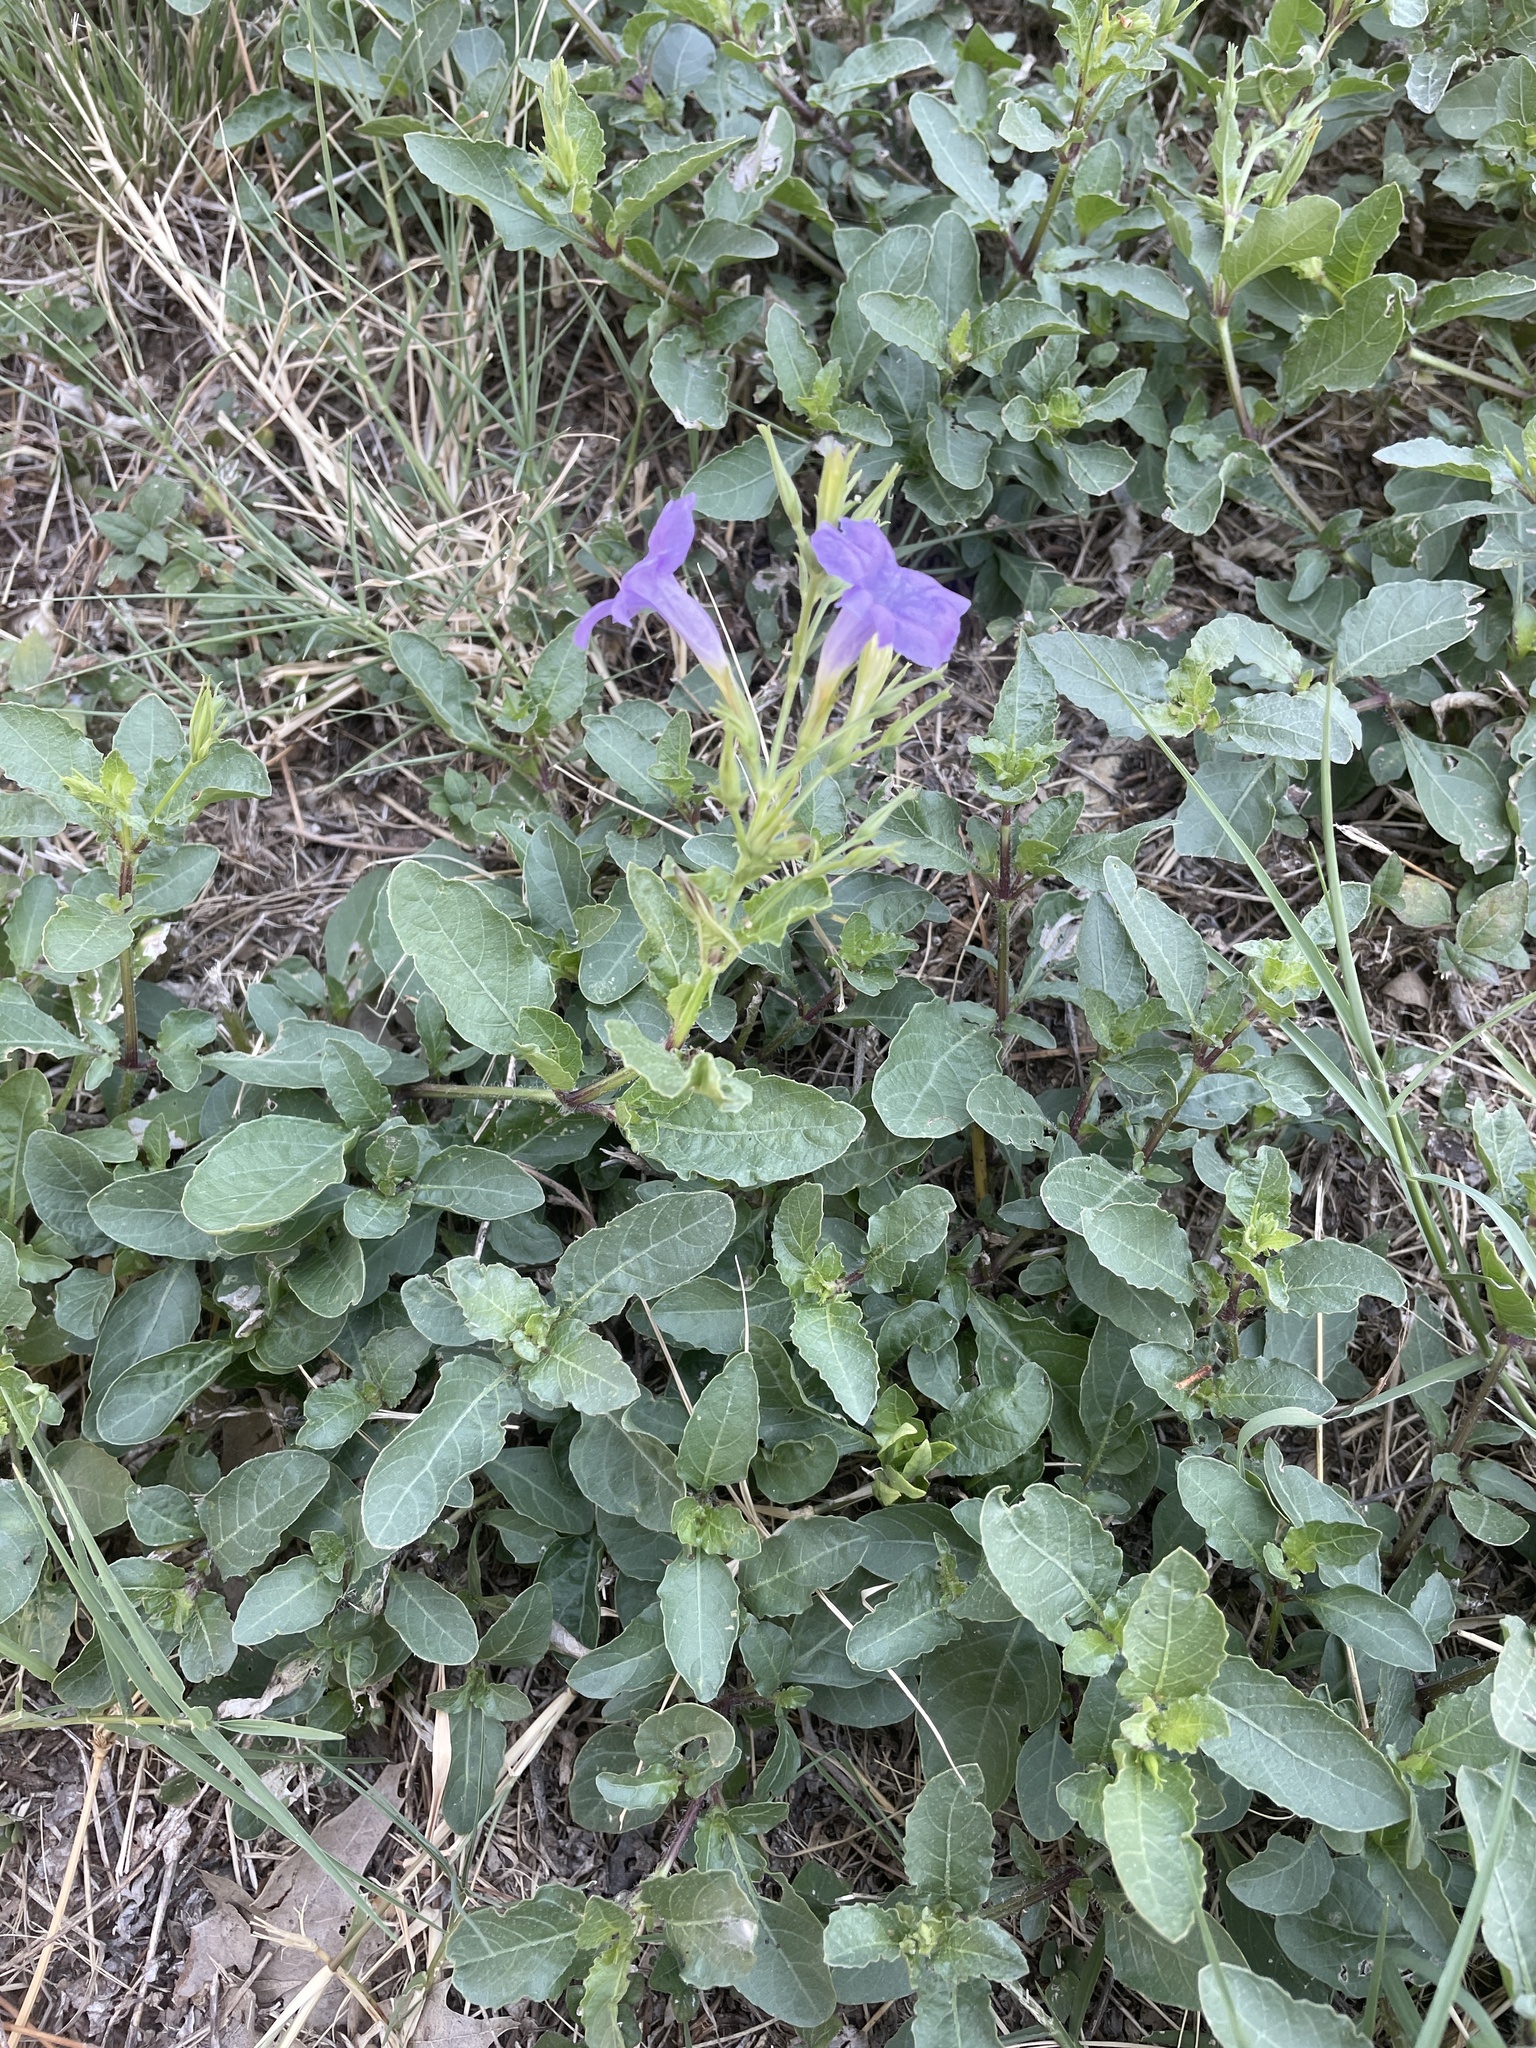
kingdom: Plantae
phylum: Tracheophyta
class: Magnoliopsida
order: Lamiales
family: Acanthaceae
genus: Ruellia
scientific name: Ruellia ciliatiflora
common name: Hairyflower wild petunia
